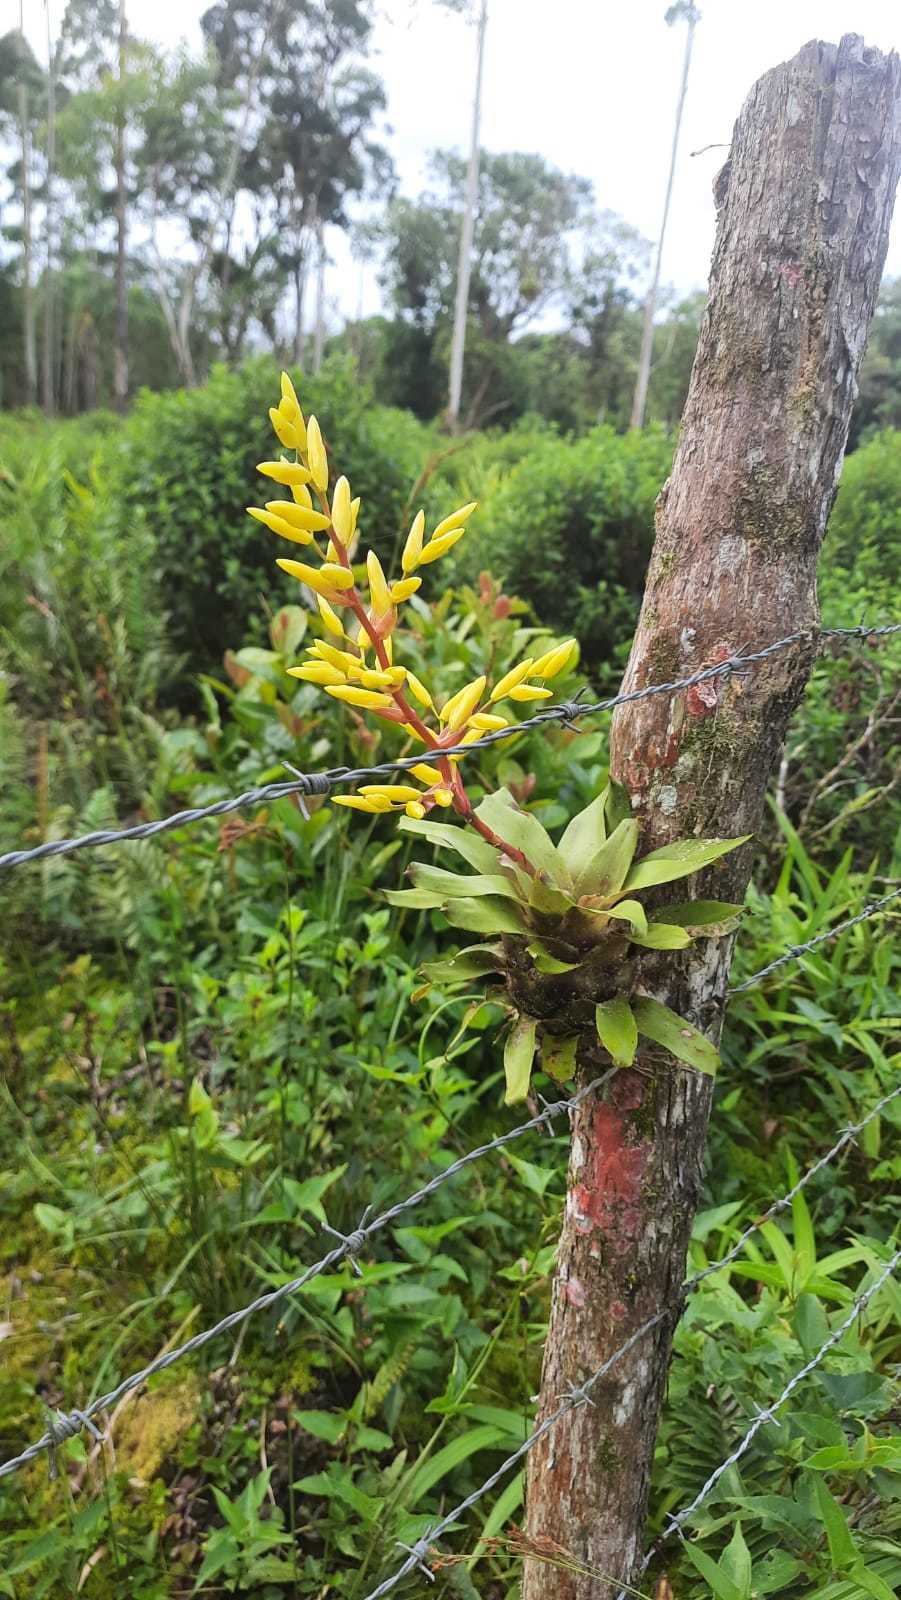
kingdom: Plantae
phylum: Tracheophyta
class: Liliopsida
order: Poales
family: Bromeliaceae
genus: Vriesea
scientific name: Vriesea rodigasiana
